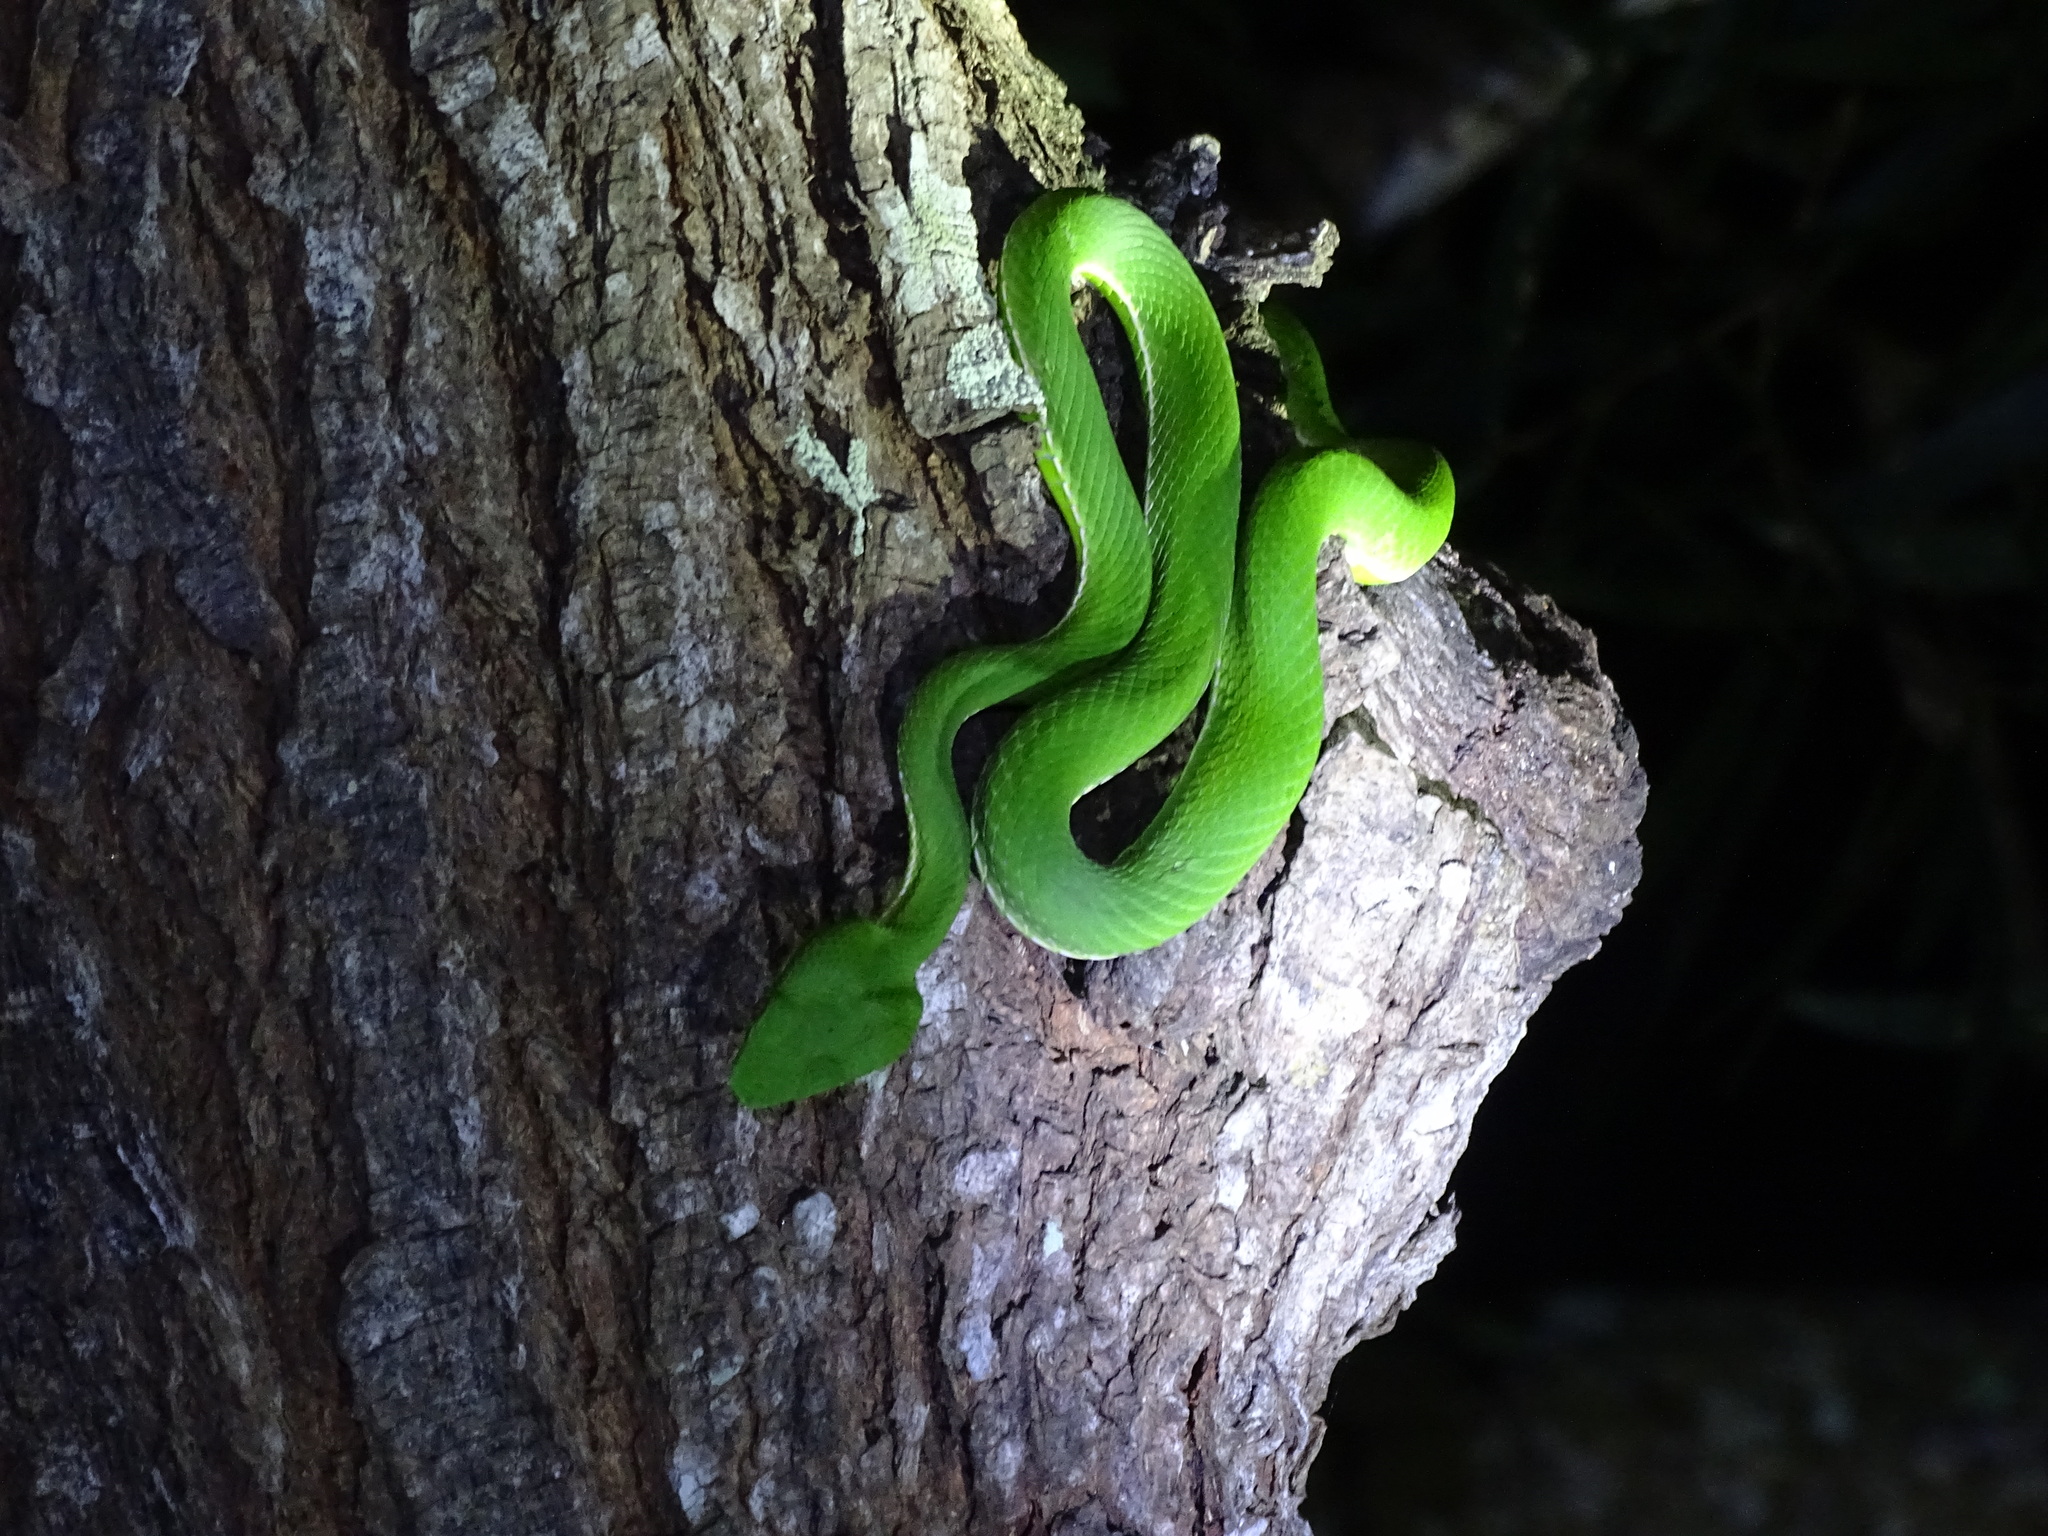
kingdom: Animalia
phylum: Chordata
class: Squamata
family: Viperidae
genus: Trimeresurus
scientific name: Trimeresurus stejnegeri
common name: Chen’s bamboo pit viper
